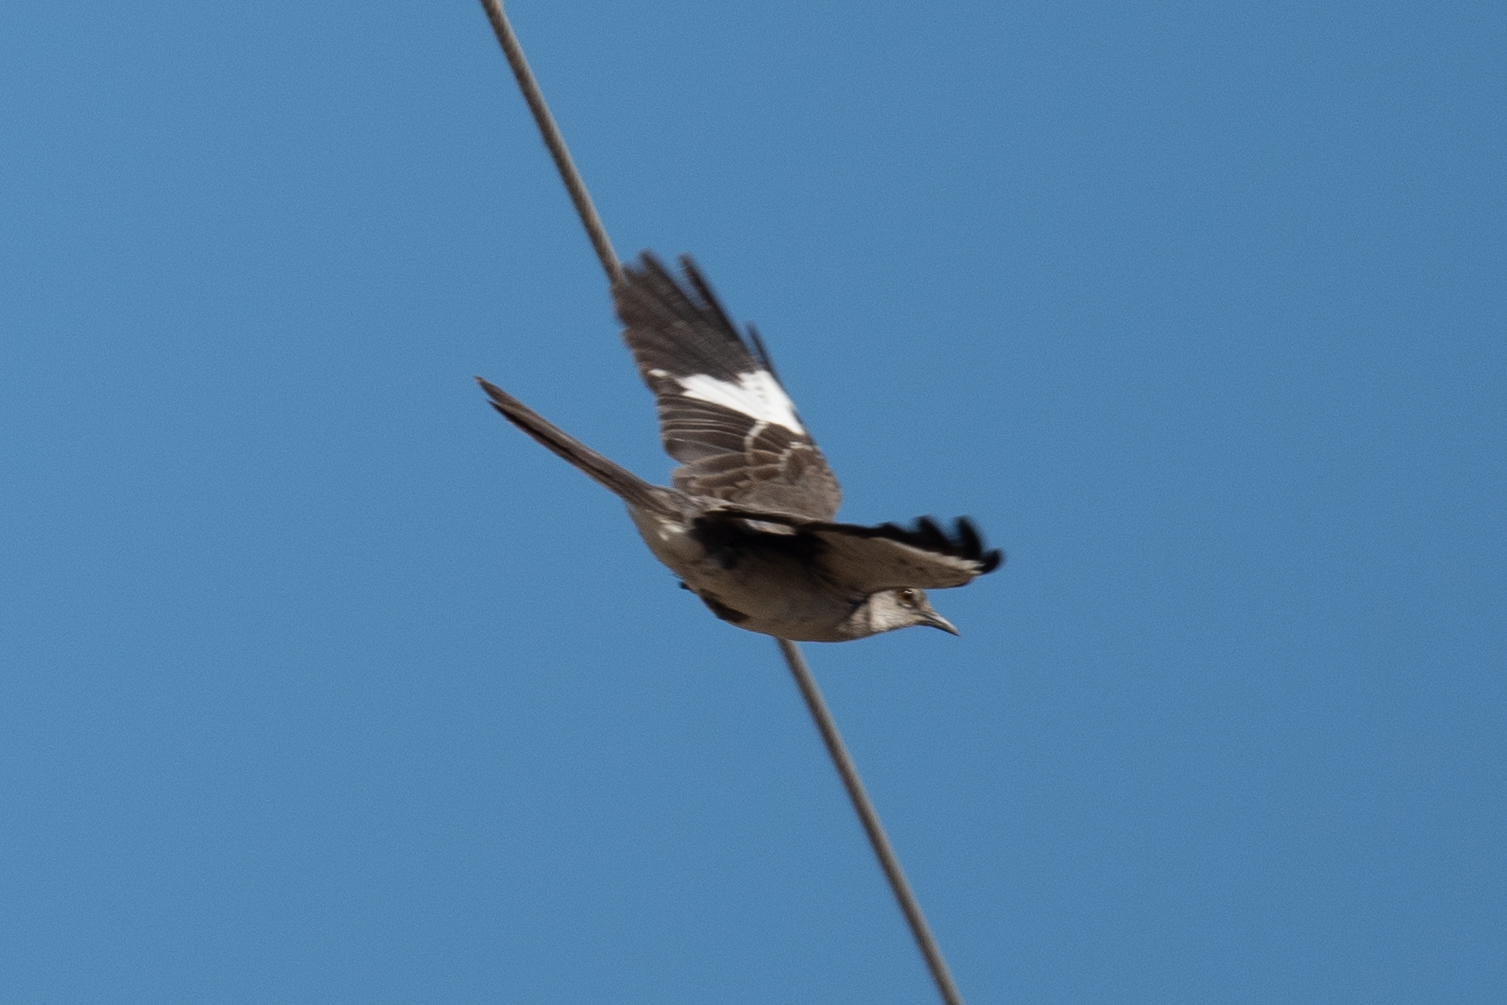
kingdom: Animalia
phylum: Chordata
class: Aves
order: Passeriformes
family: Mimidae
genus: Mimus
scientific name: Mimus polyglottos
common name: Northern mockingbird
